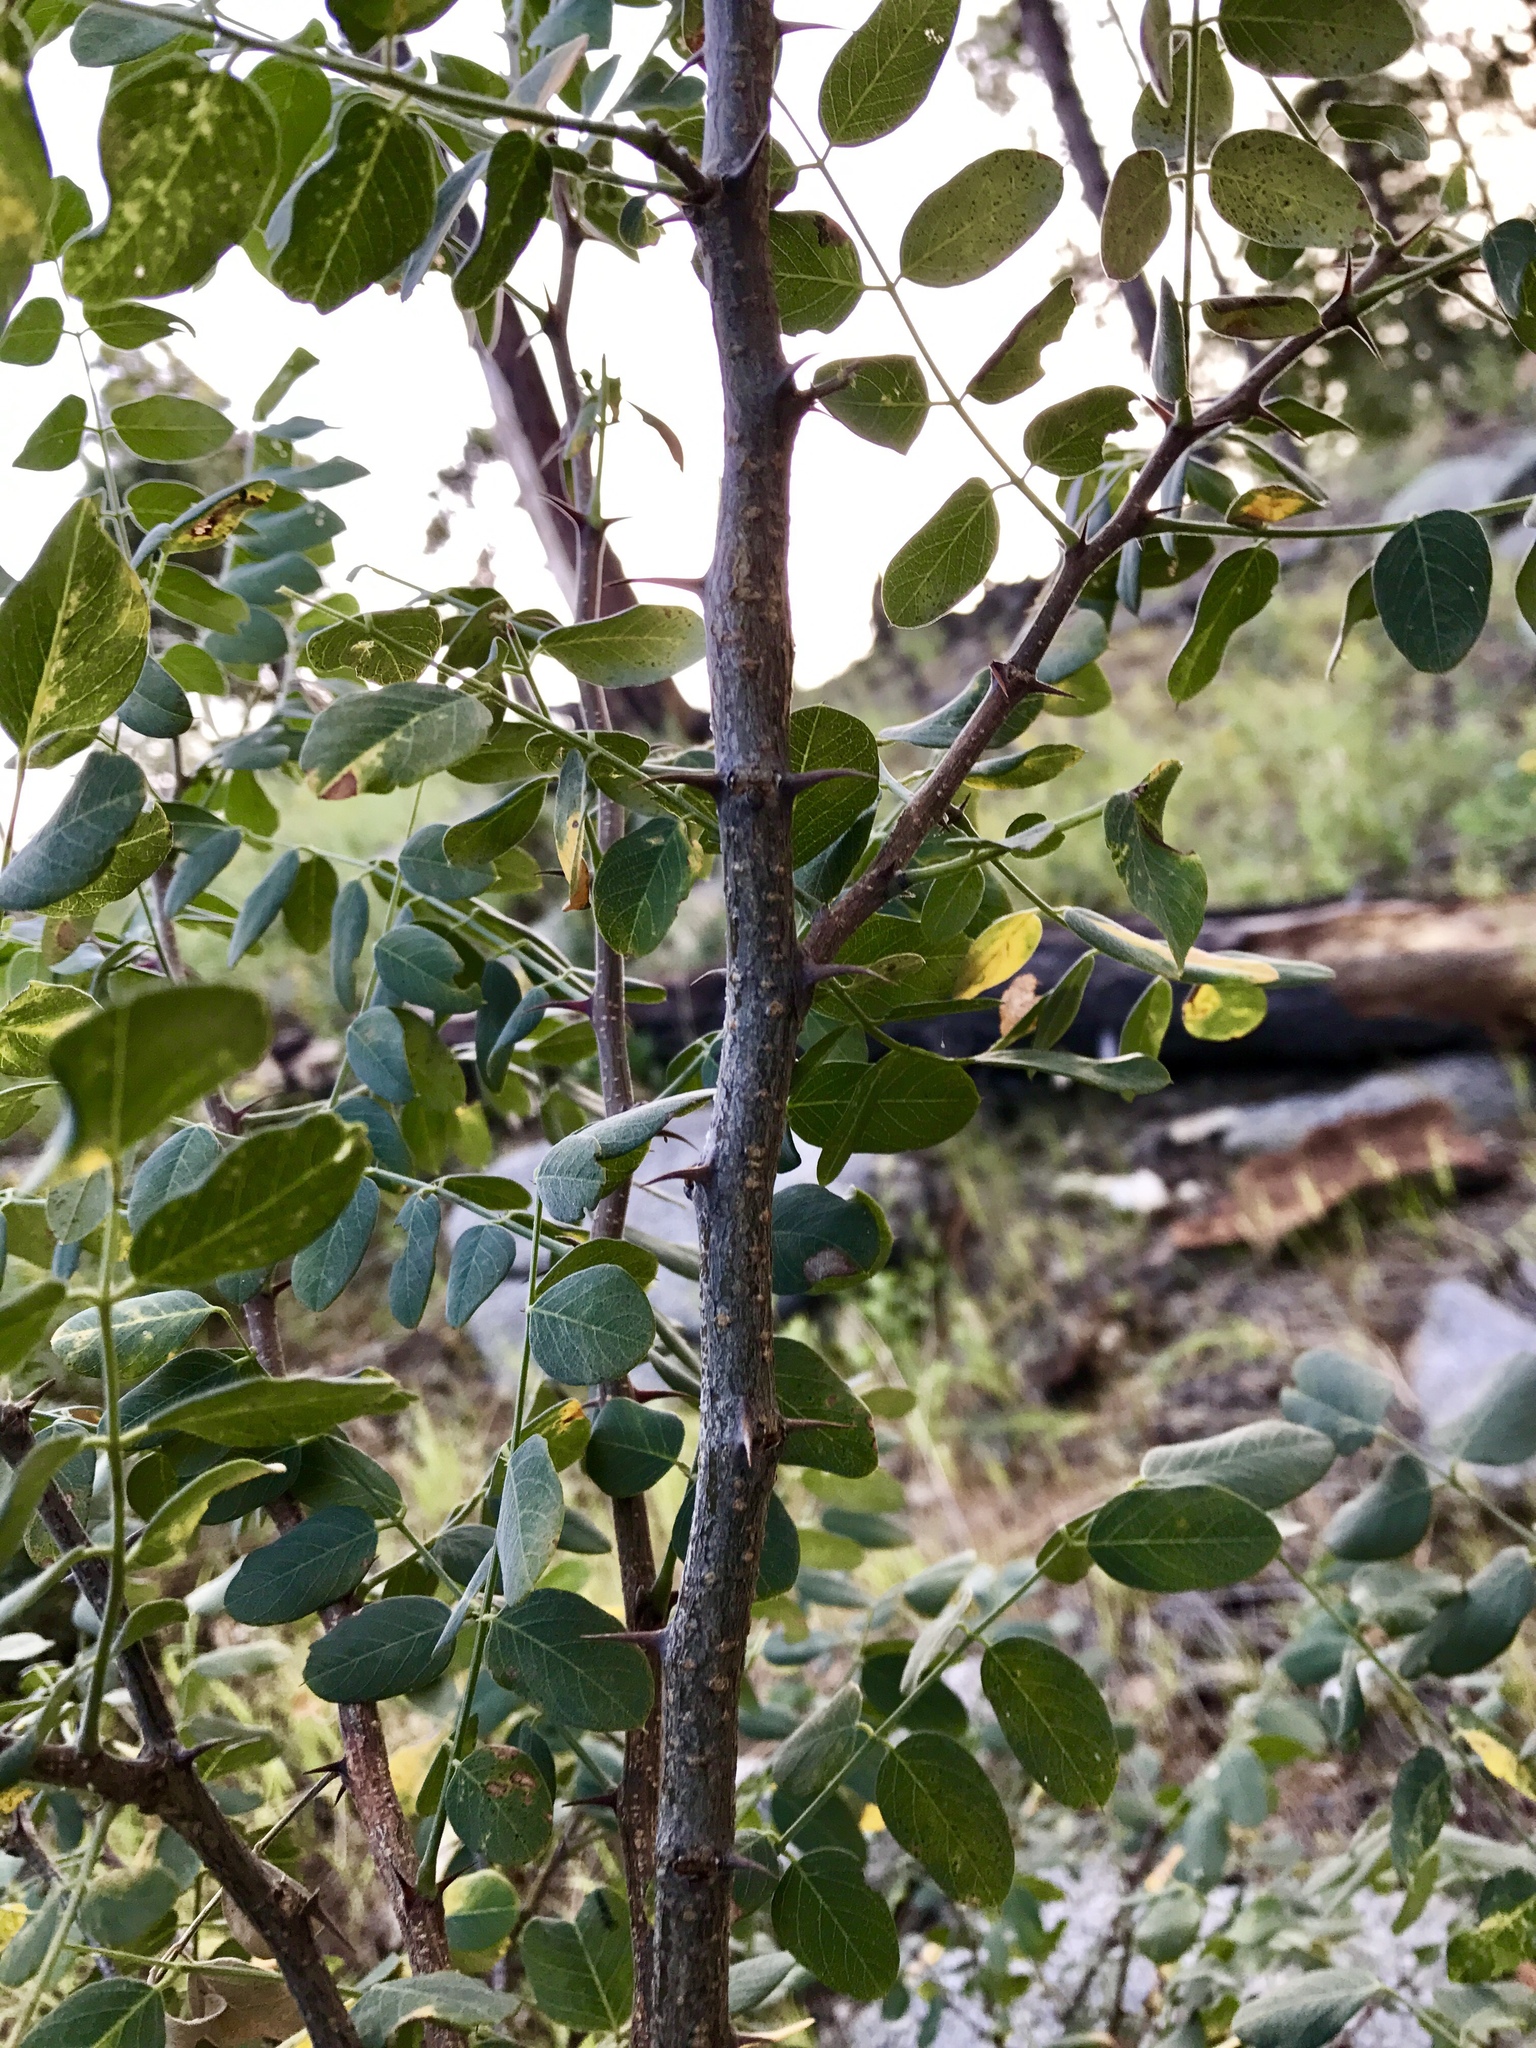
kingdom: Plantae
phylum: Tracheophyta
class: Magnoliopsida
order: Fabales
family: Fabaceae
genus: Robinia
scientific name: Robinia neomexicana
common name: New mexico locust
